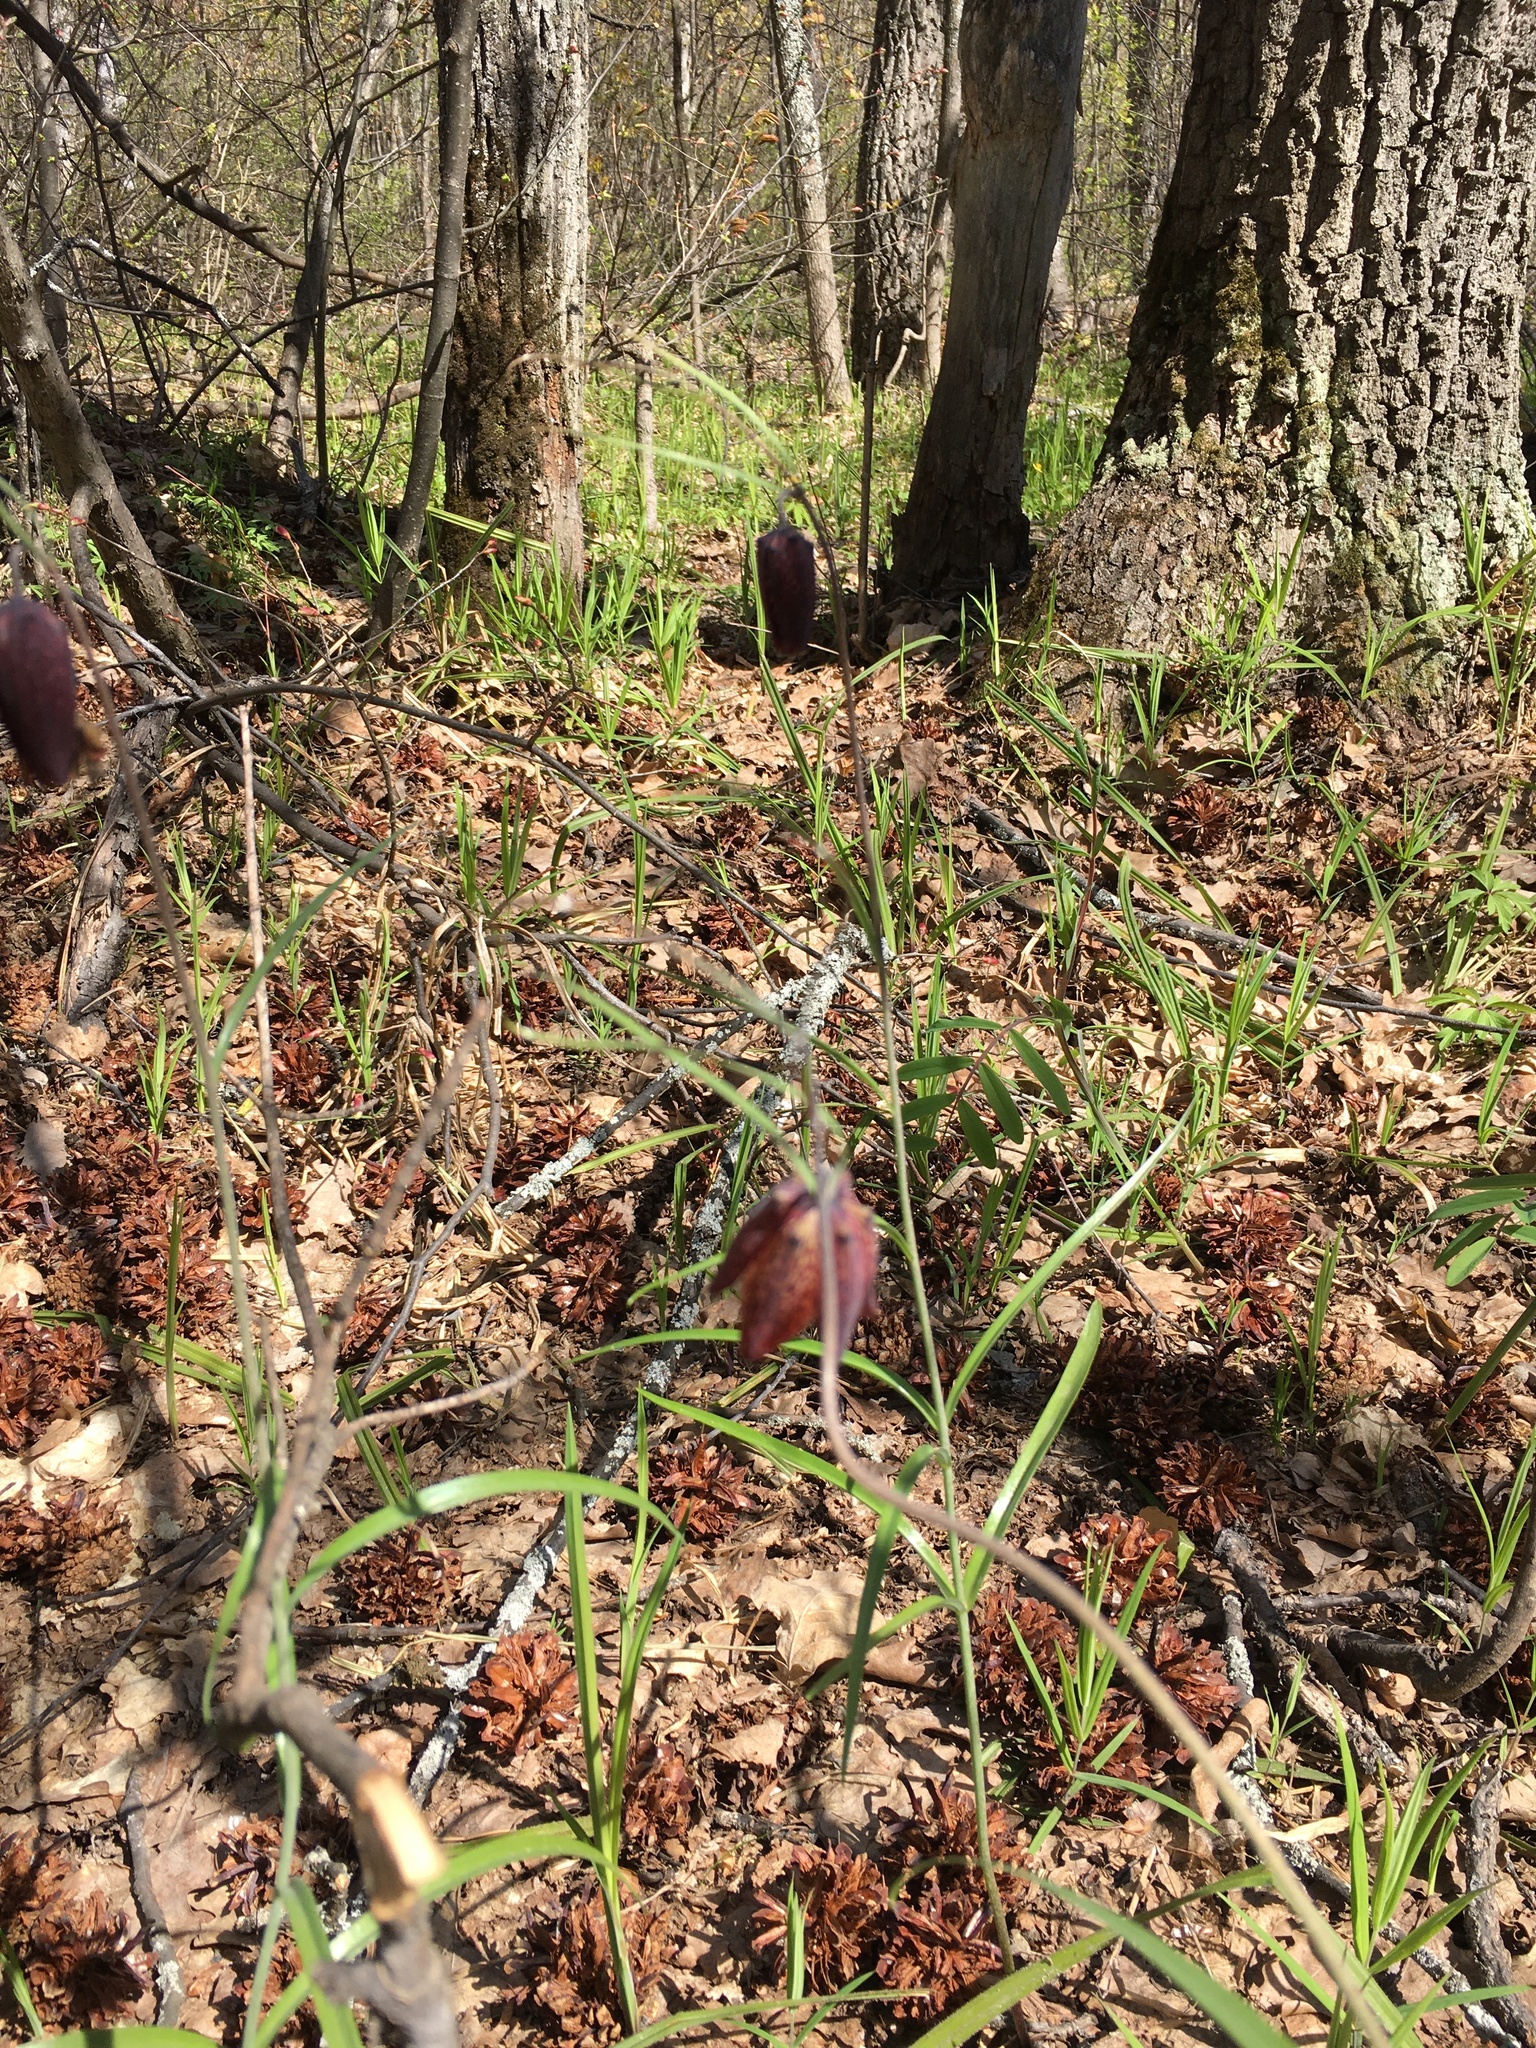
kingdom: Plantae
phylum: Tracheophyta
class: Liliopsida
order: Liliales
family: Liliaceae
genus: Fritillaria
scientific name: Fritillaria ruthenica
